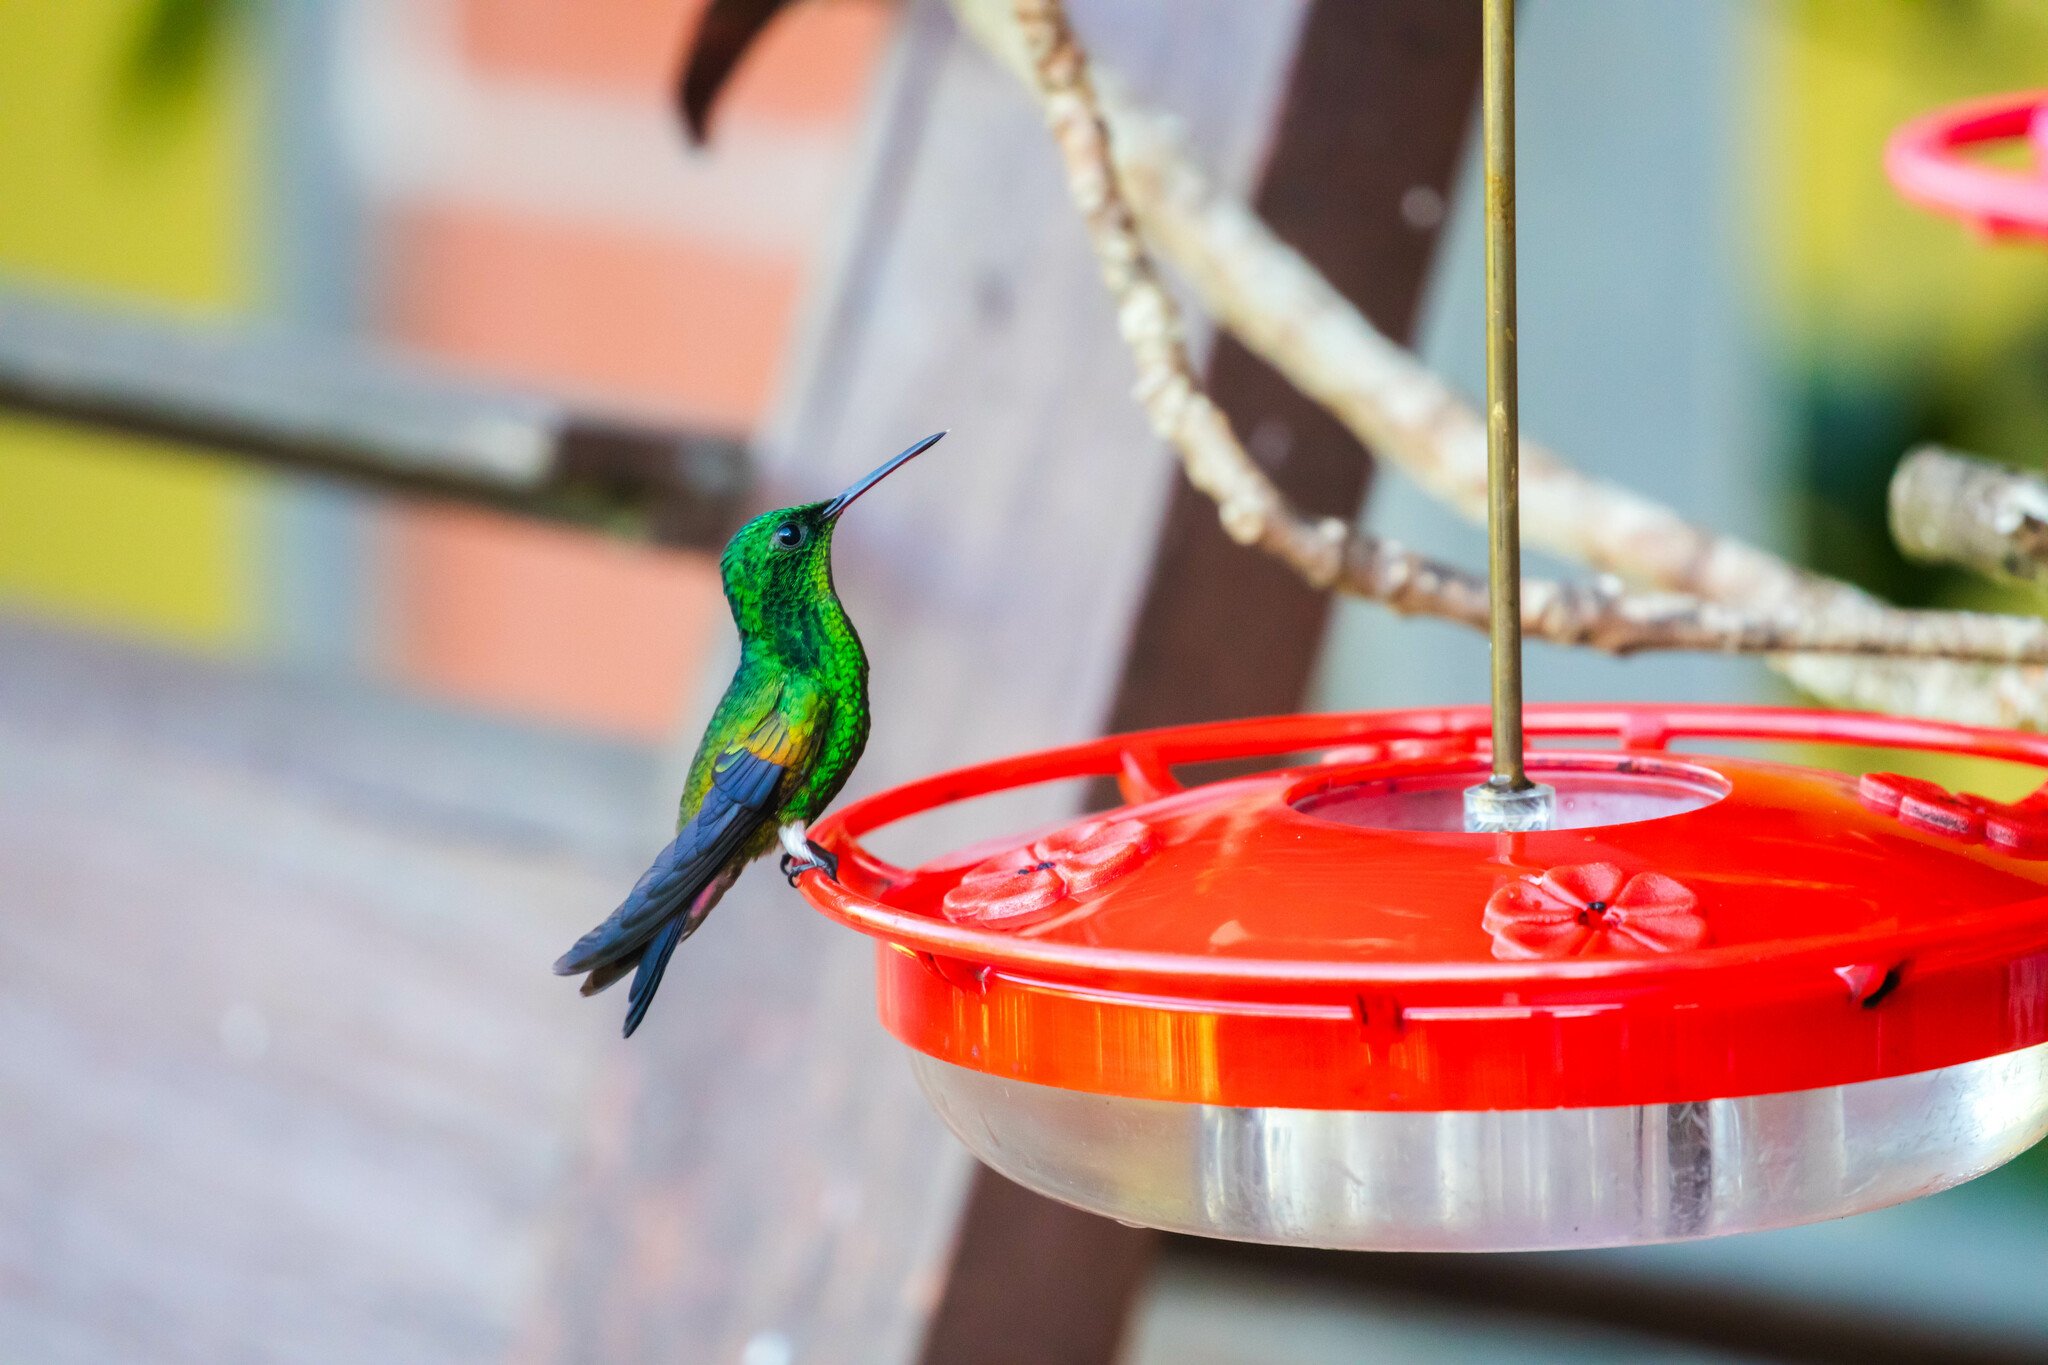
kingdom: Animalia
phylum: Chordata
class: Aves
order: Apodiformes
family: Trochilidae
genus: Saucerottia
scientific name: Saucerottia tobaci
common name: Copper-rumped hummingbird
